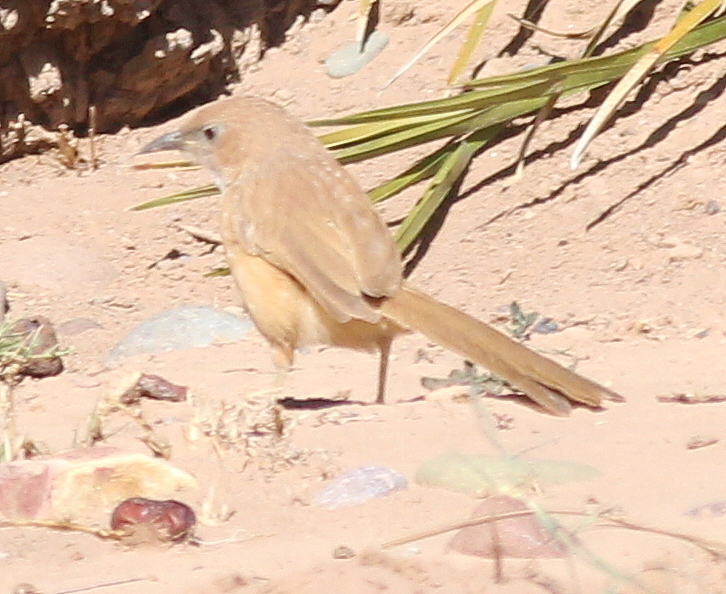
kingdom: Animalia
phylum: Chordata
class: Aves
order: Passeriformes
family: Leiothrichidae
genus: Turdoides
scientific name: Turdoides fulva
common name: Fulvous babbler
